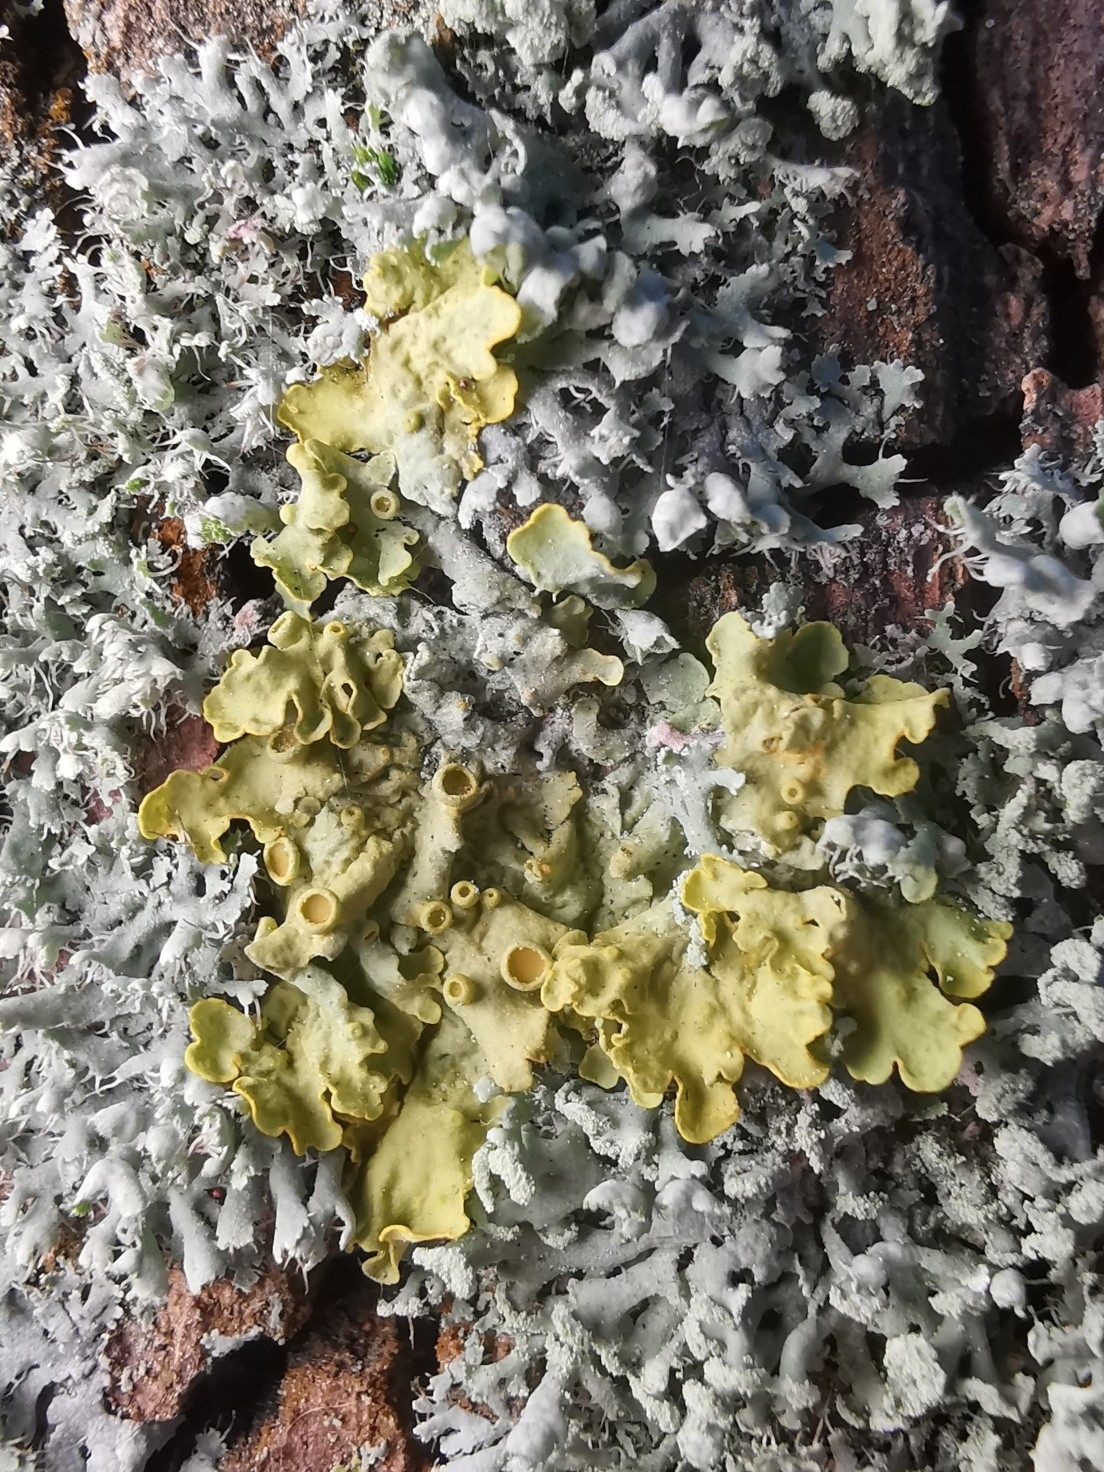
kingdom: Fungi
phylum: Ascomycota
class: Lecanoromycetes
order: Teloschistales
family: Teloschistaceae
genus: Xanthoria
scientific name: Xanthoria parietina
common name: Common orange lichen
